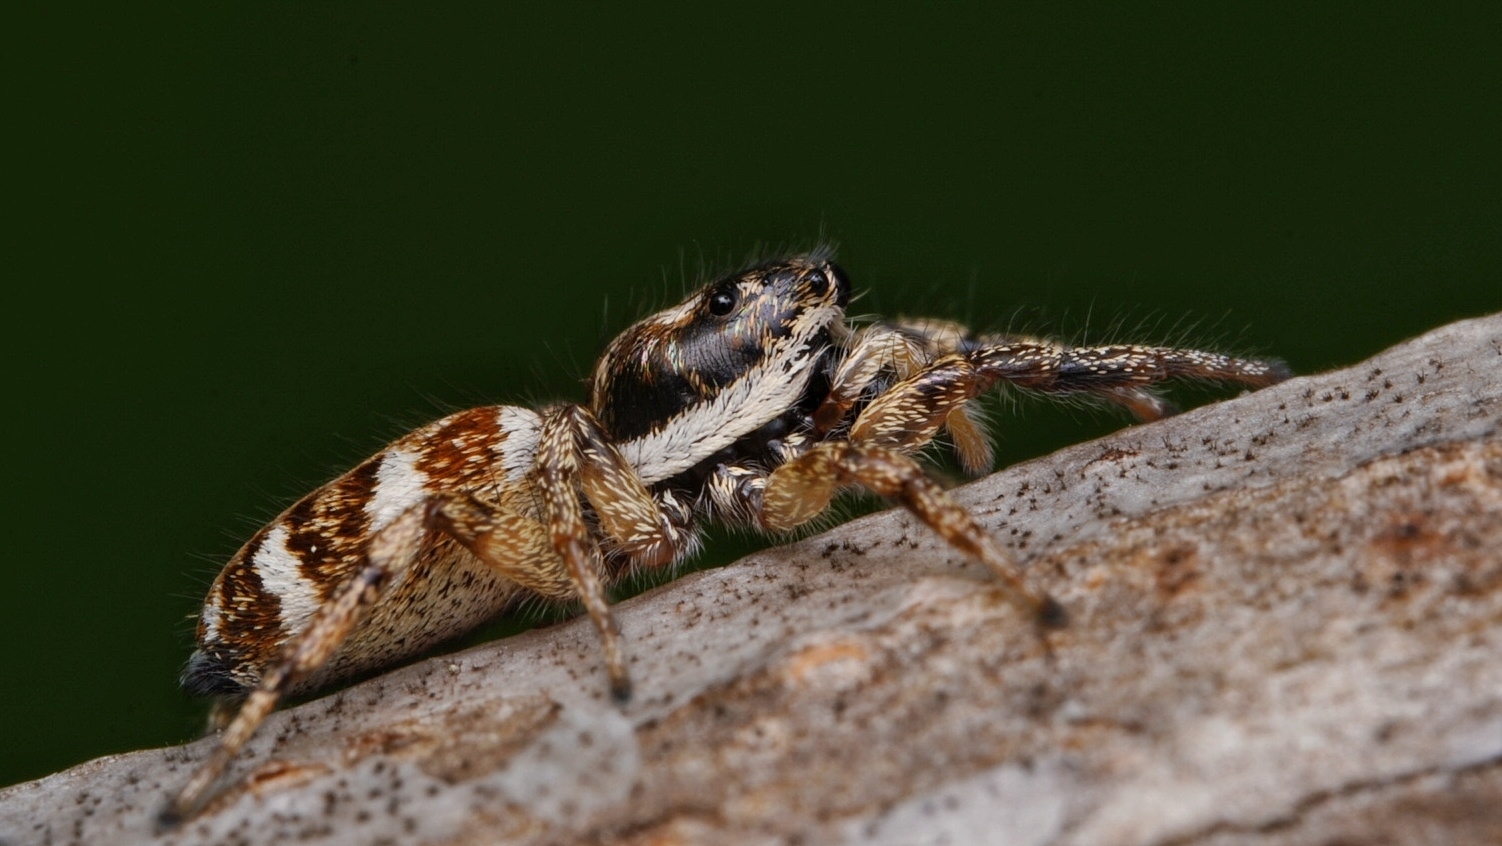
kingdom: Animalia
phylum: Arthropoda
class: Arachnida
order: Araneae
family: Salticidae
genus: Salticus
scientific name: Salticus scenicus
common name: Zebra jumper
